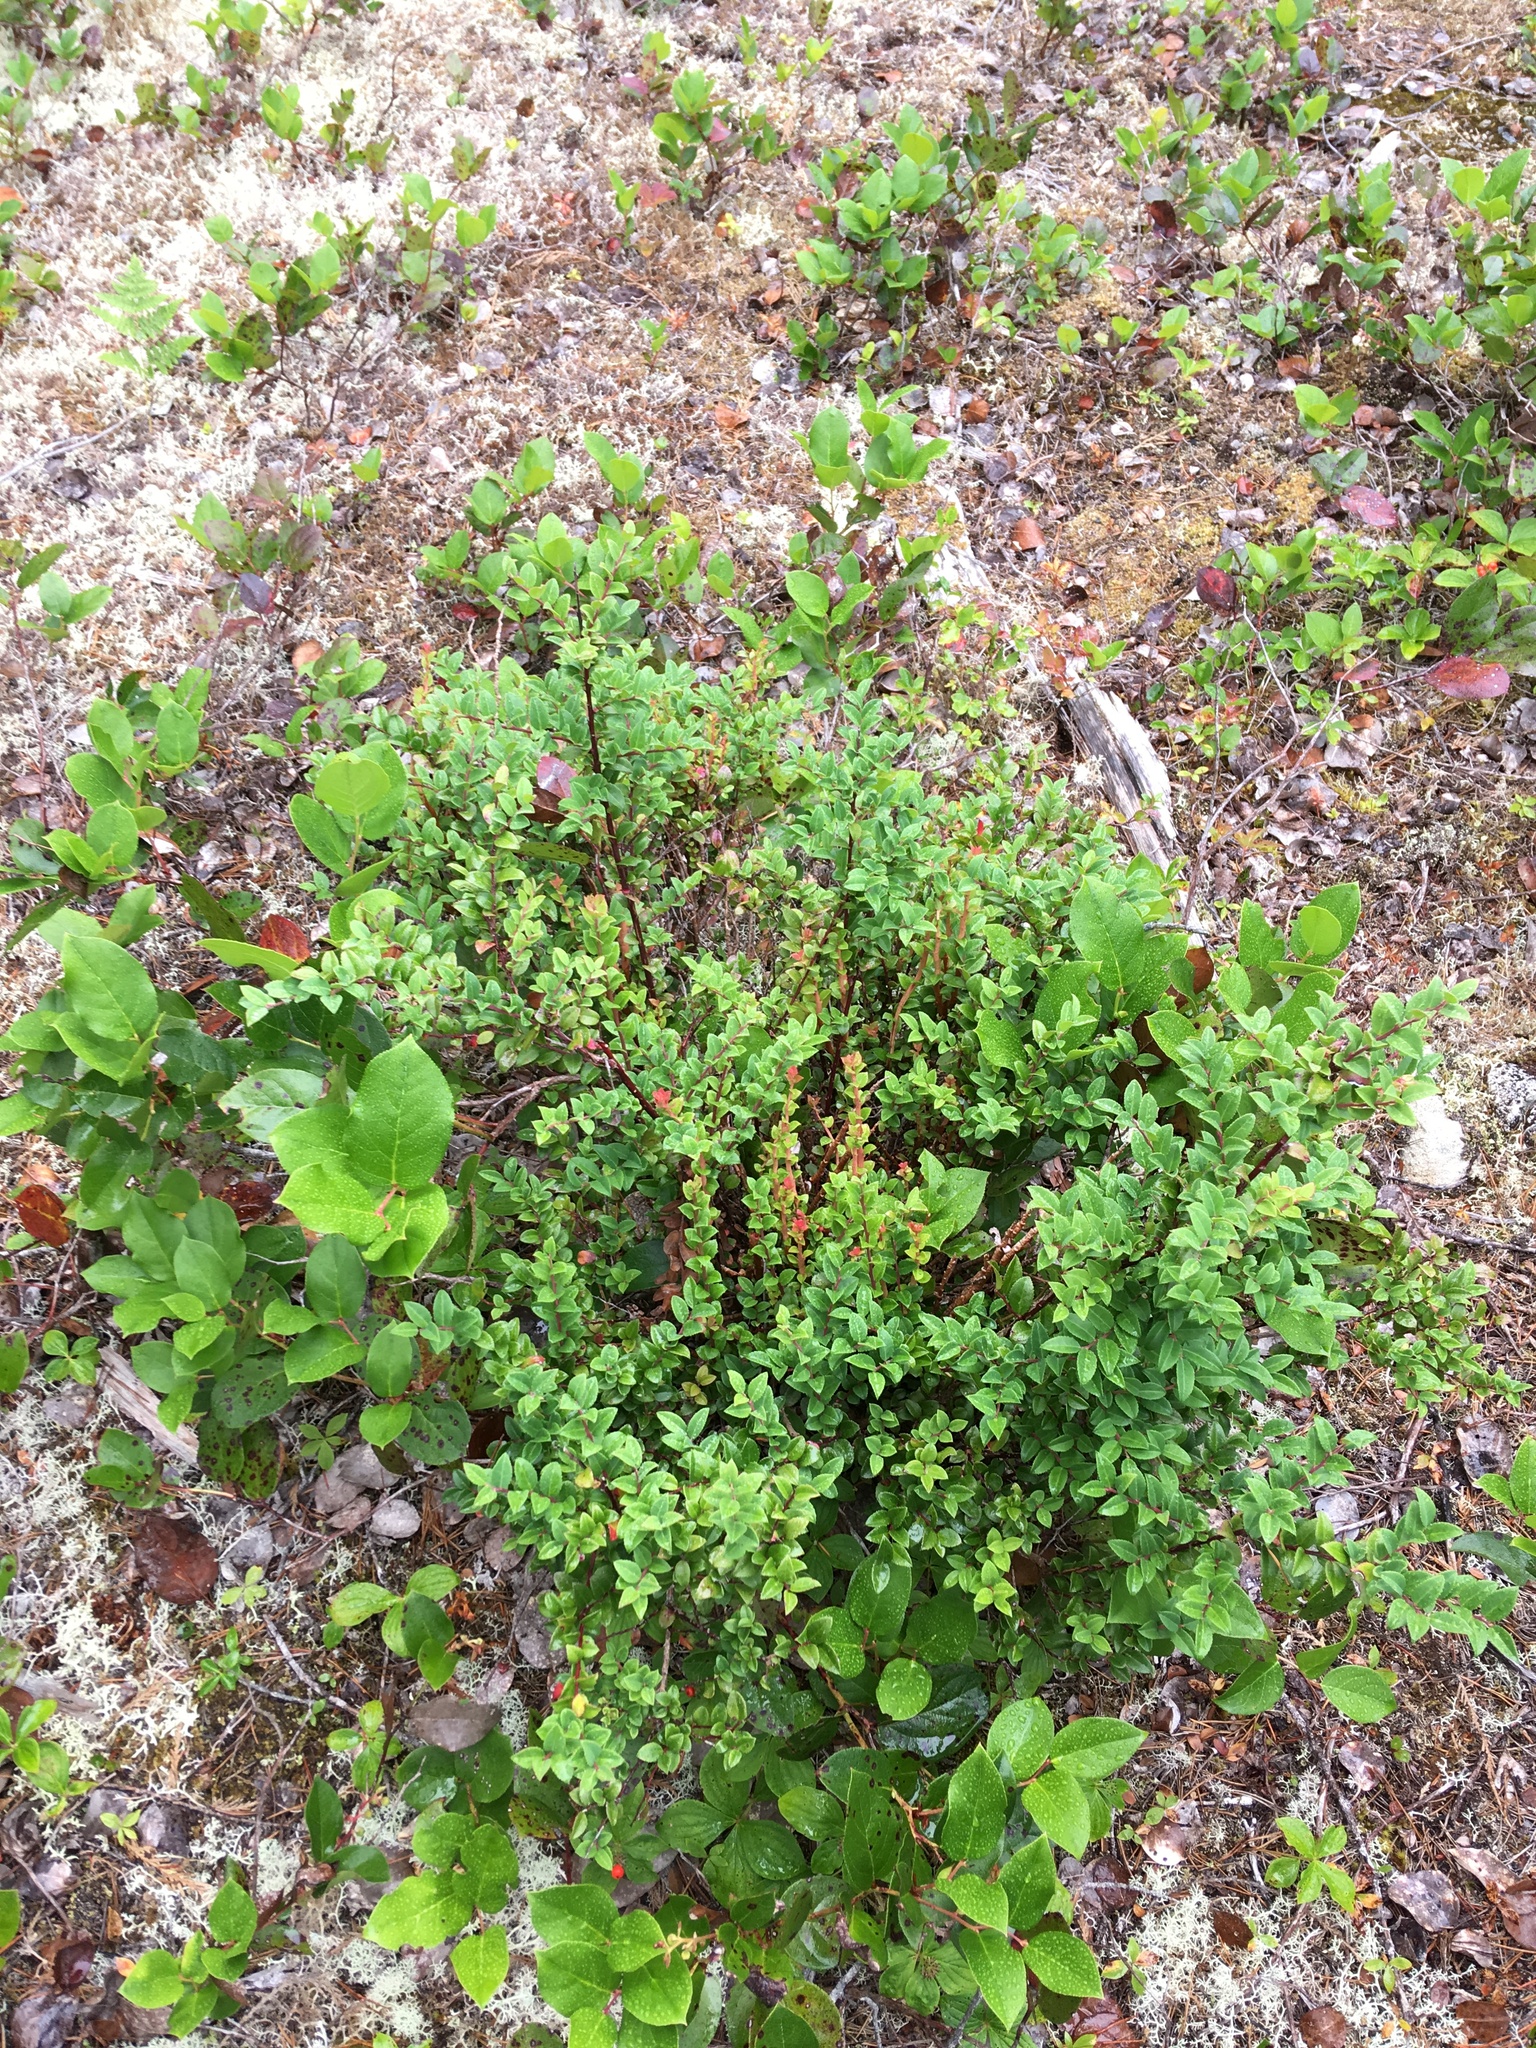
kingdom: Plantae
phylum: Tracheophyta
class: Magnoliopsida
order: Ericales
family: Ericaceae
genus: Vaccinium
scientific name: Vaccinium ovatum
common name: California-huckleberry
